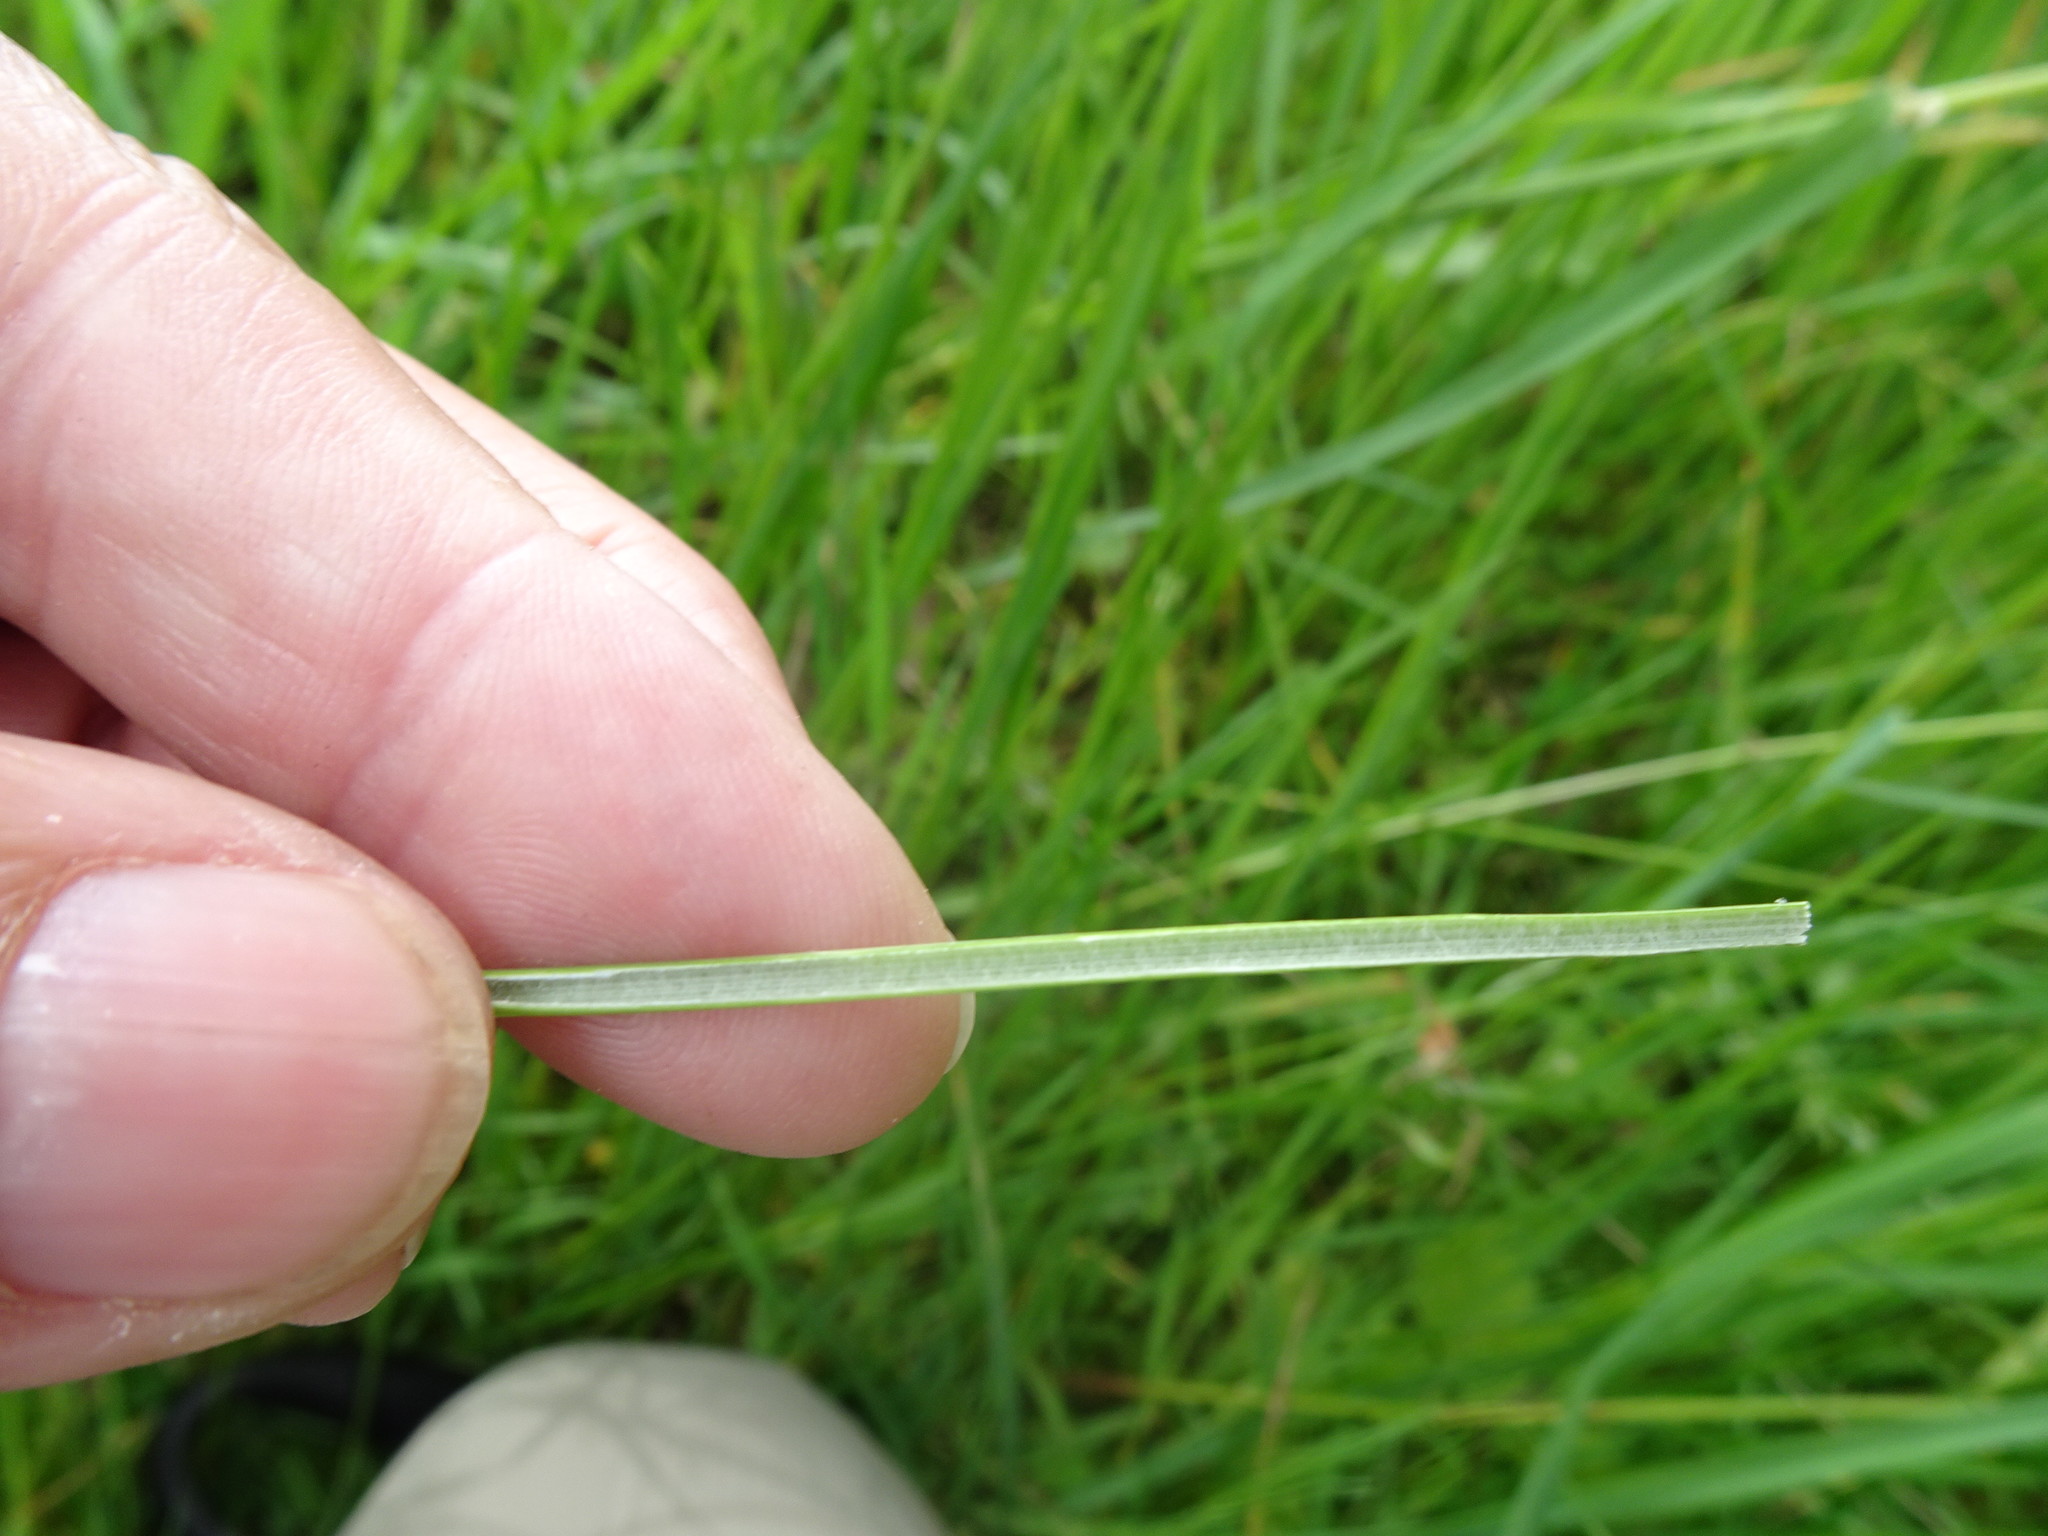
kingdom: Plantae
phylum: Tracheophyta
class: Liliopsida
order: Poales
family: Juncaceae
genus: Juncus
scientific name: Juncus effusus
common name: Soft rush
